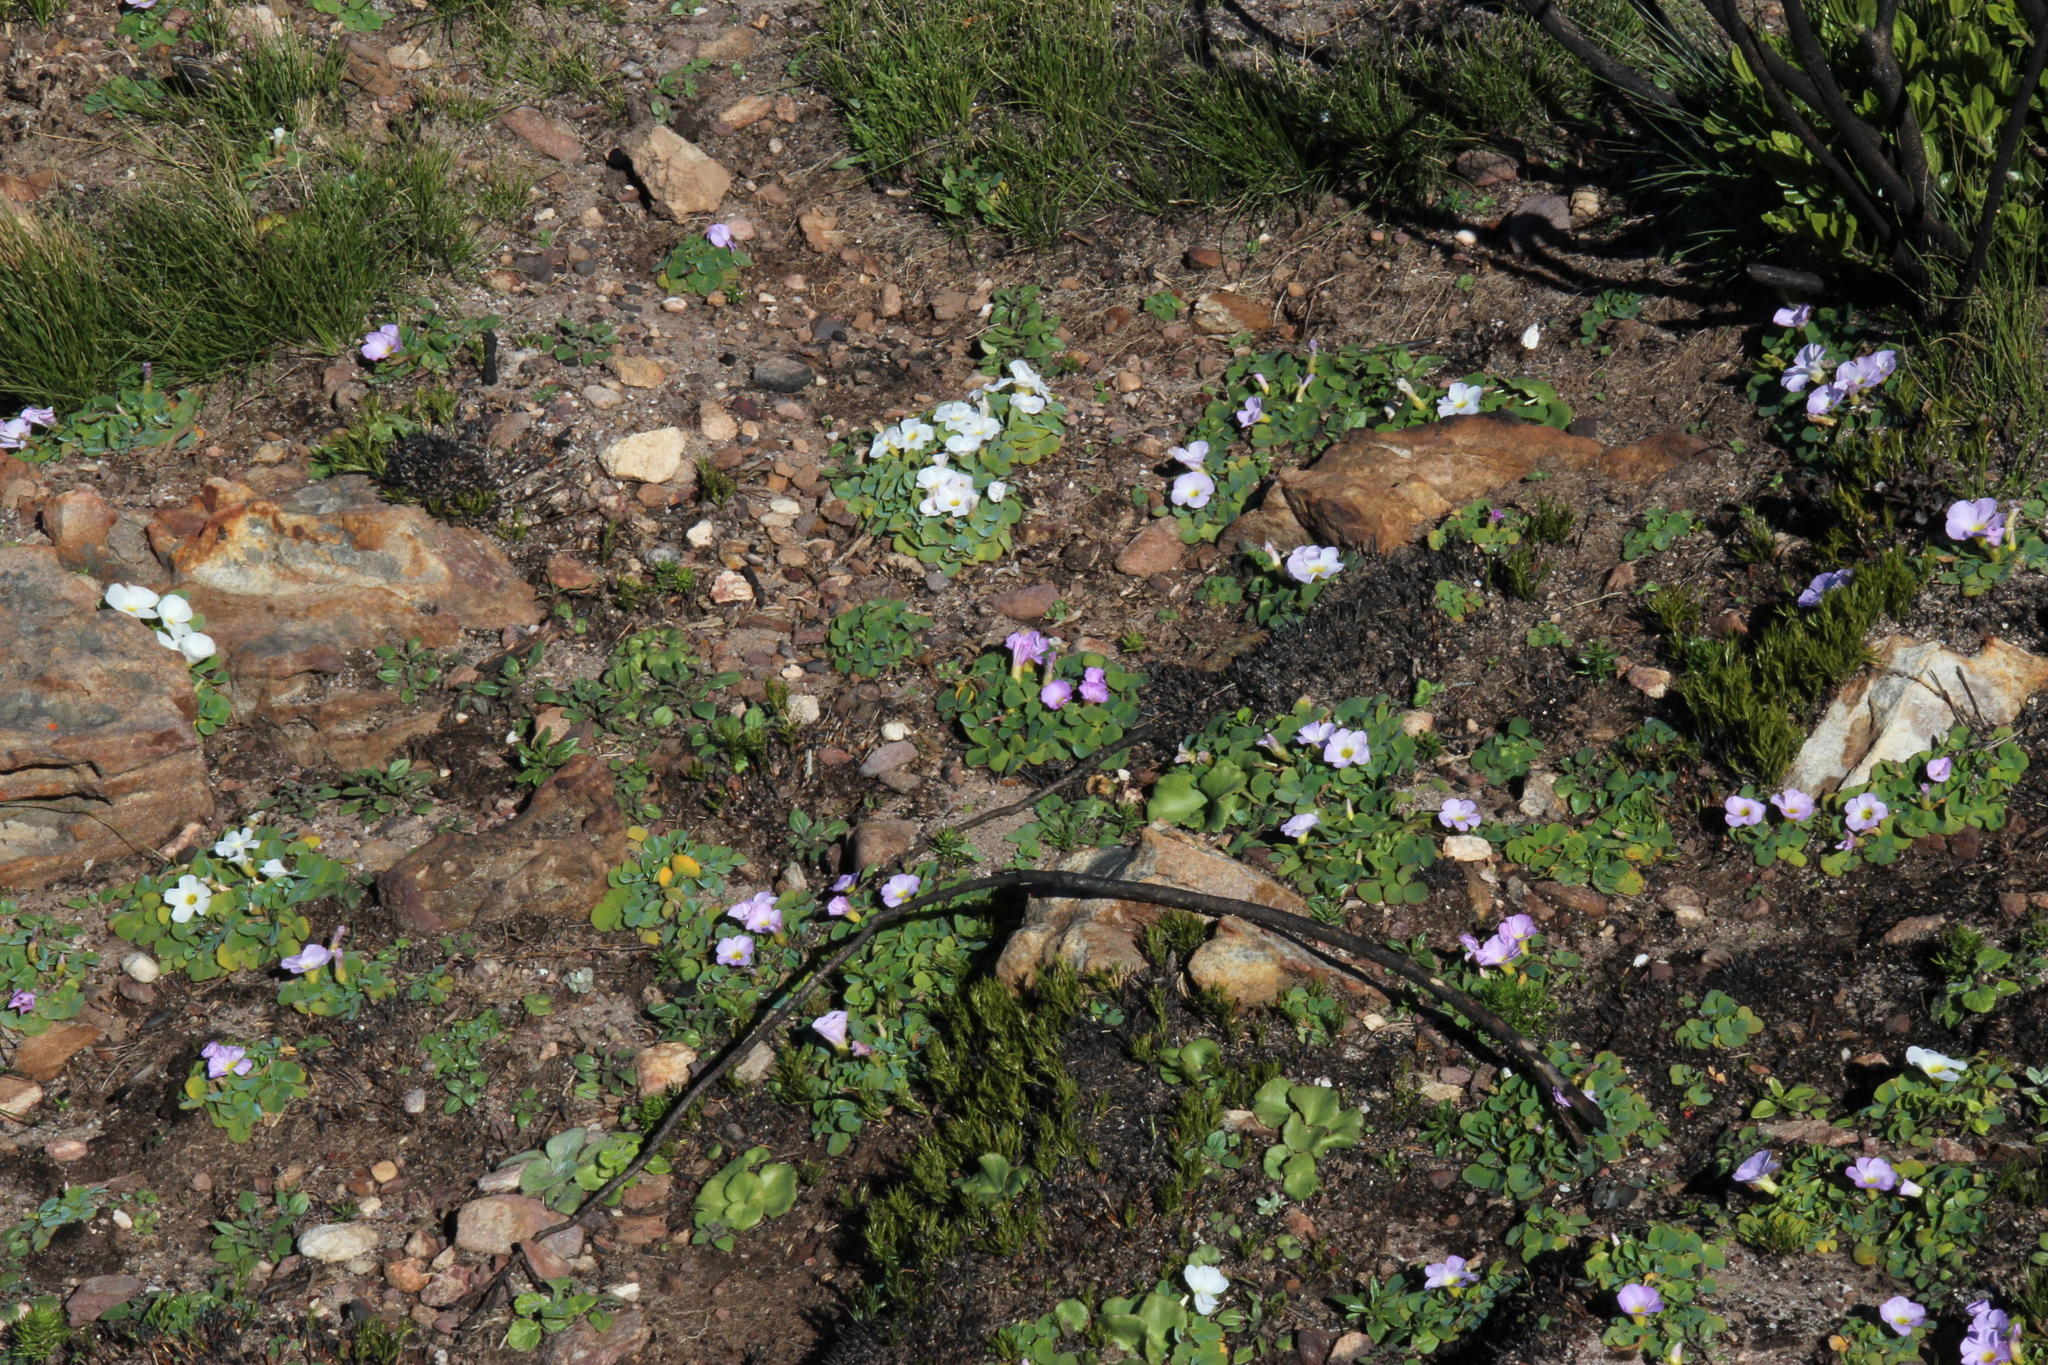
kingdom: Plantae
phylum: Tracheophyta
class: Magnoliopsida
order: Oxalidales
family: Oxalidaceae
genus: Oxalis
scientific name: Oxalis purpurea
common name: Purple woodsorrel
